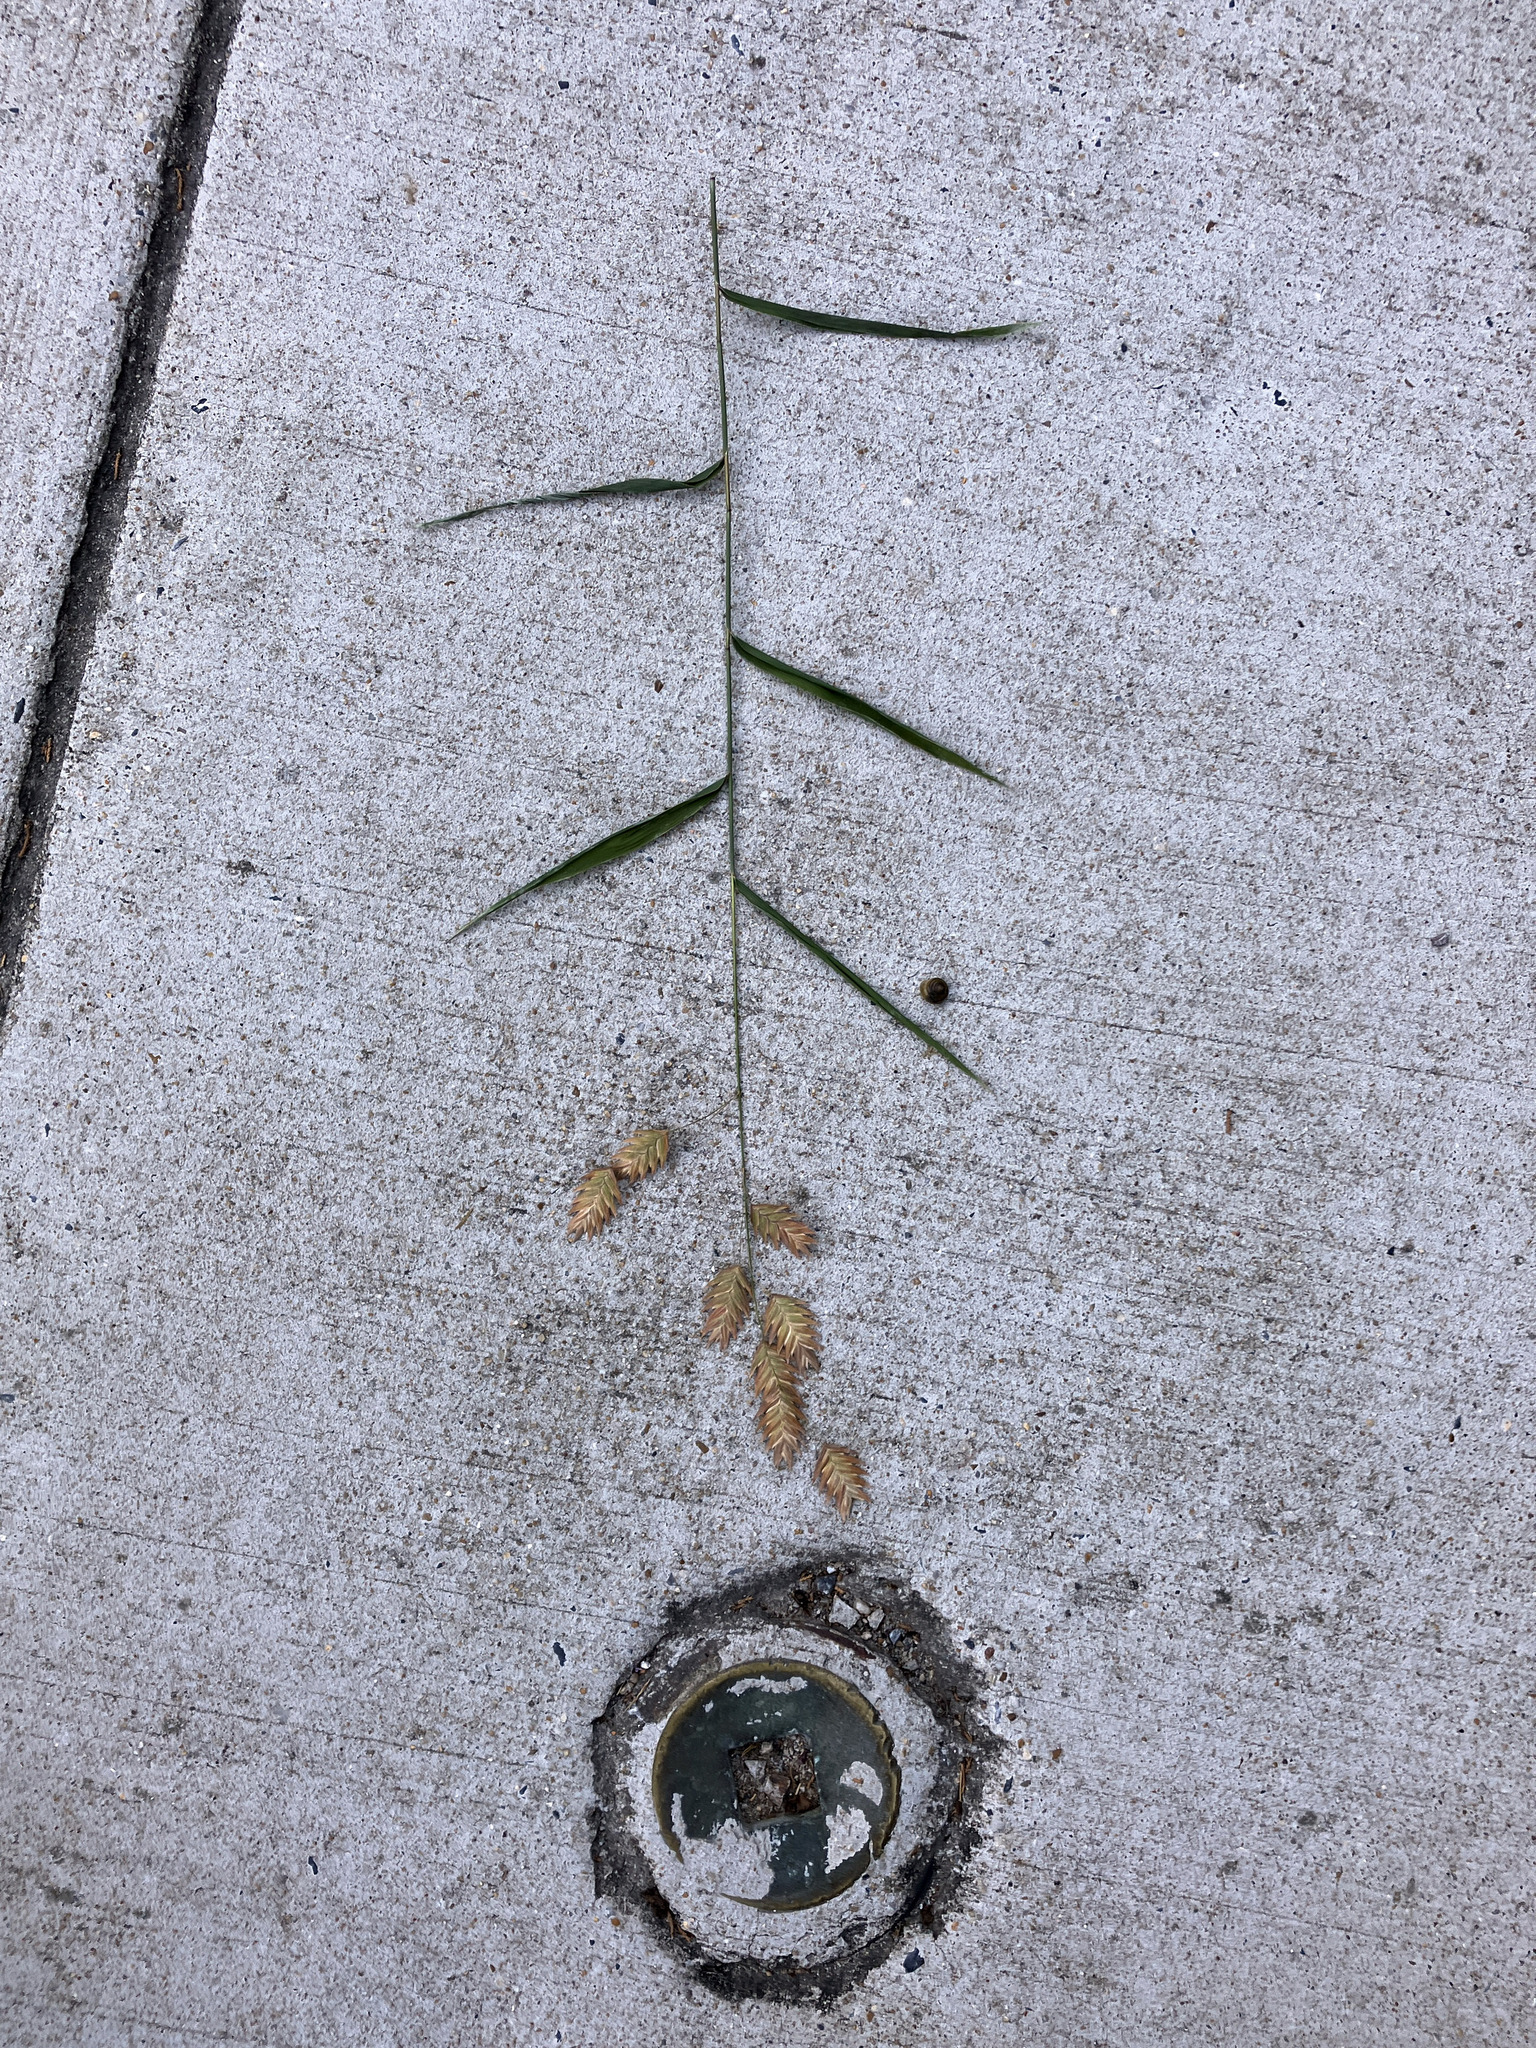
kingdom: Plantae
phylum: Tracheophyta
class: Liliopsida
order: Poales
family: Poaceae
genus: Chasmanthium
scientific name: Chasmanthium latifolium
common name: Broad-leaved chasmanthium
